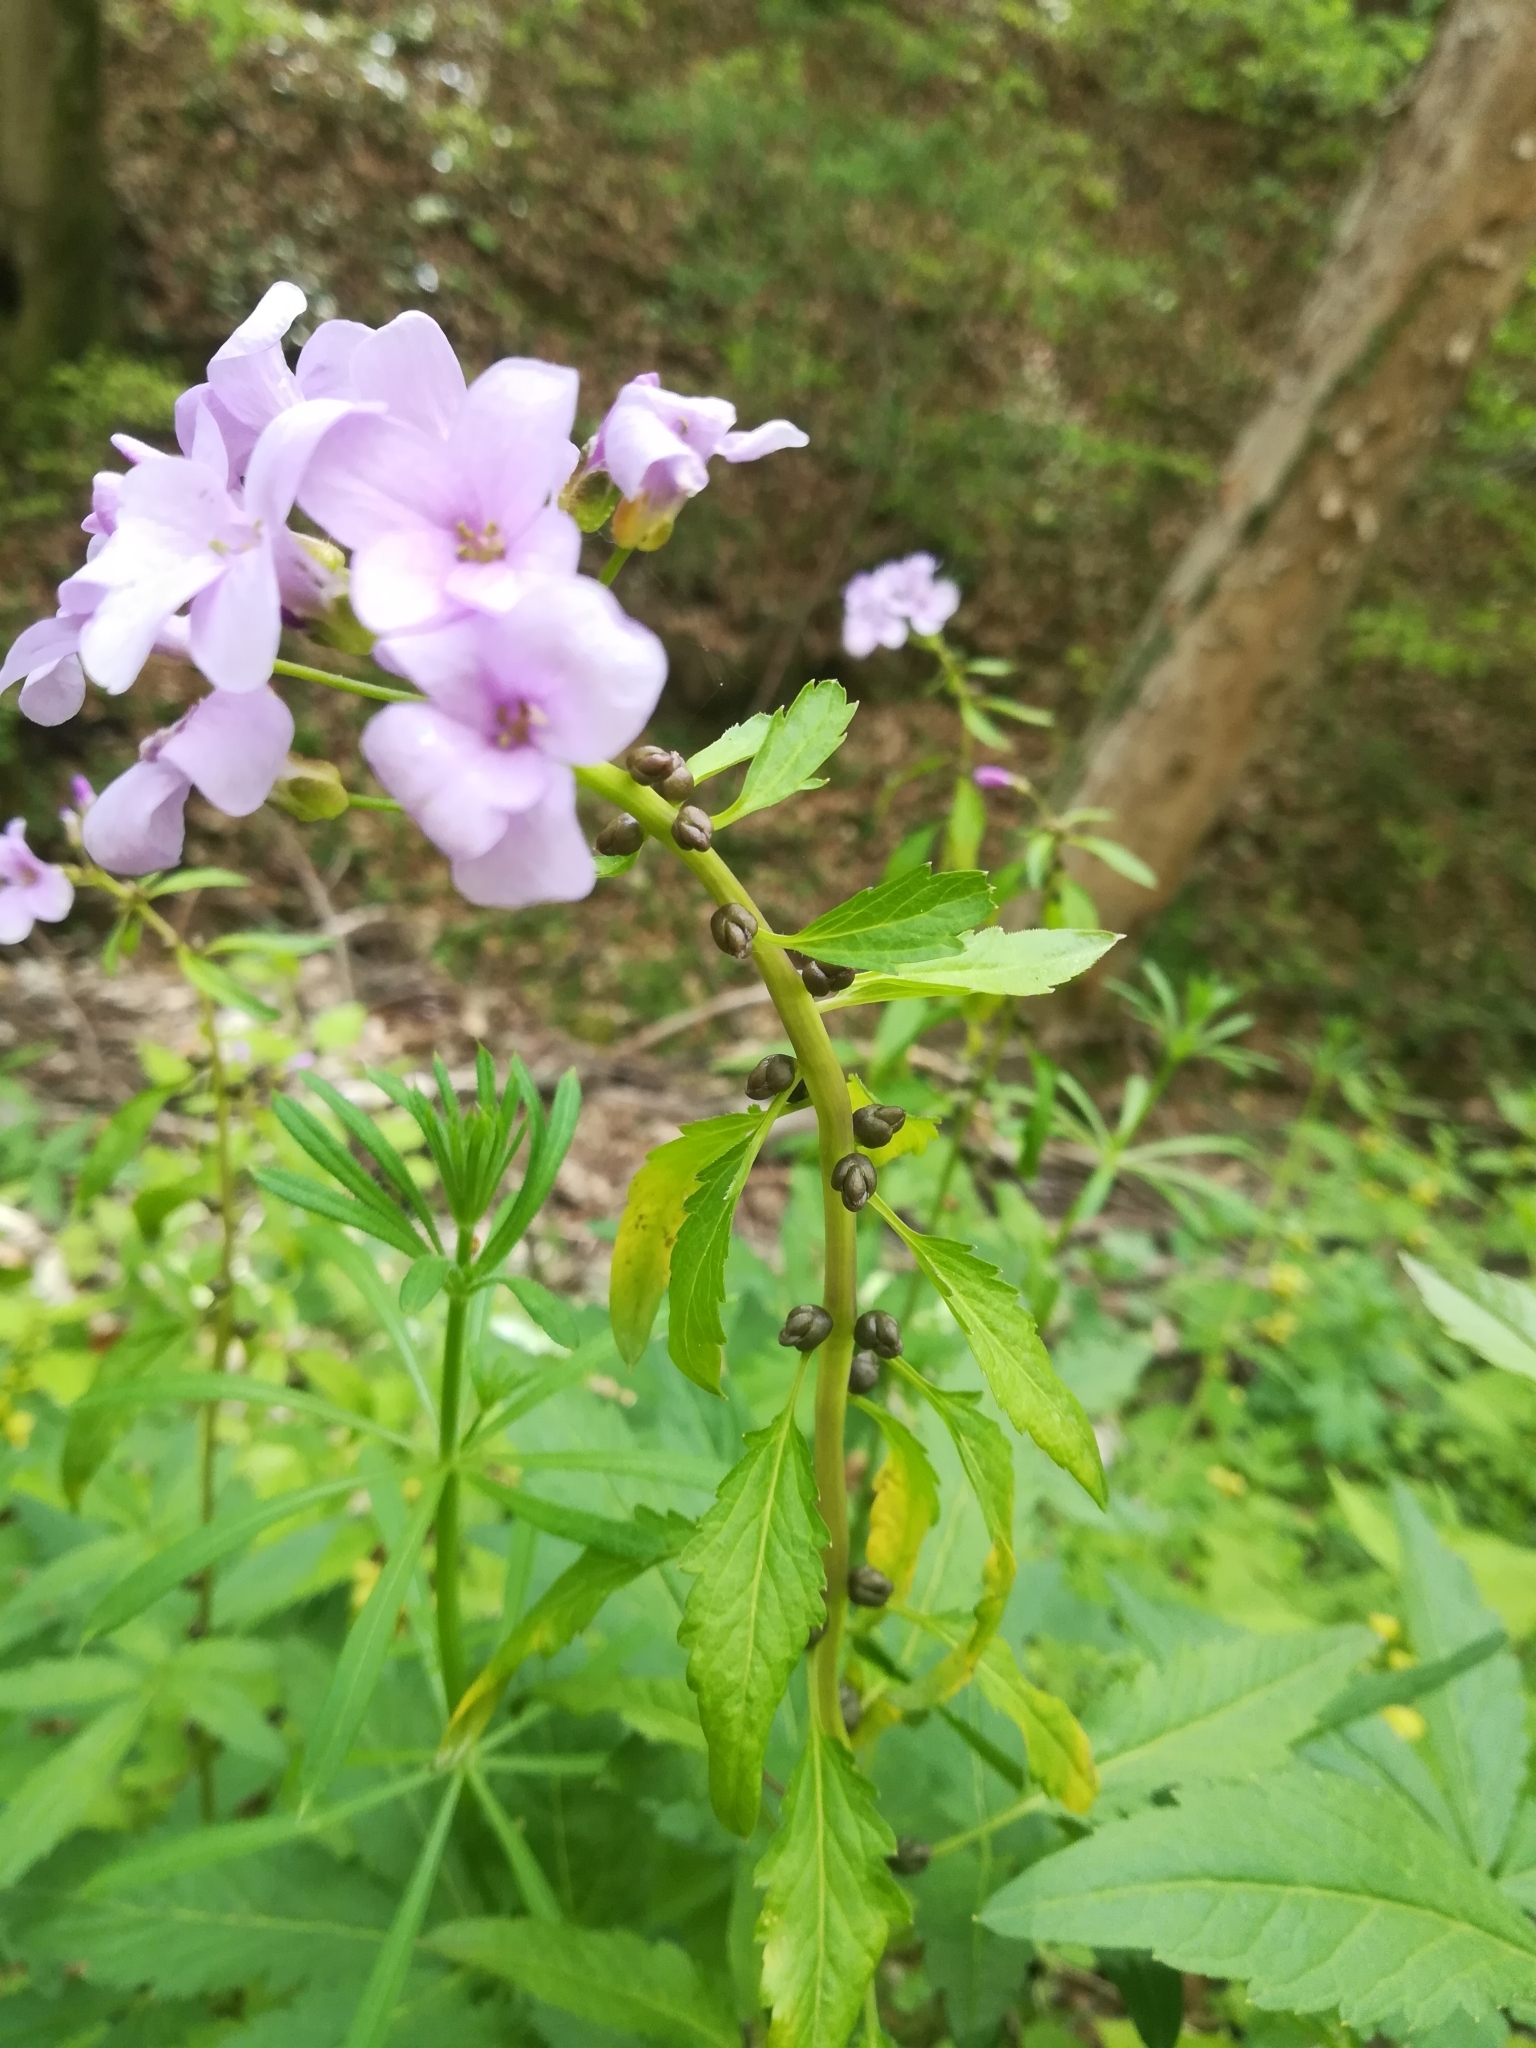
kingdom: Plantae
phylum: Tracheophyta
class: Magnoliopsida
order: Brassicales
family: Brassicaceae
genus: Cardamine
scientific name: Cardamine bulbifera
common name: Coralroot bittercress
